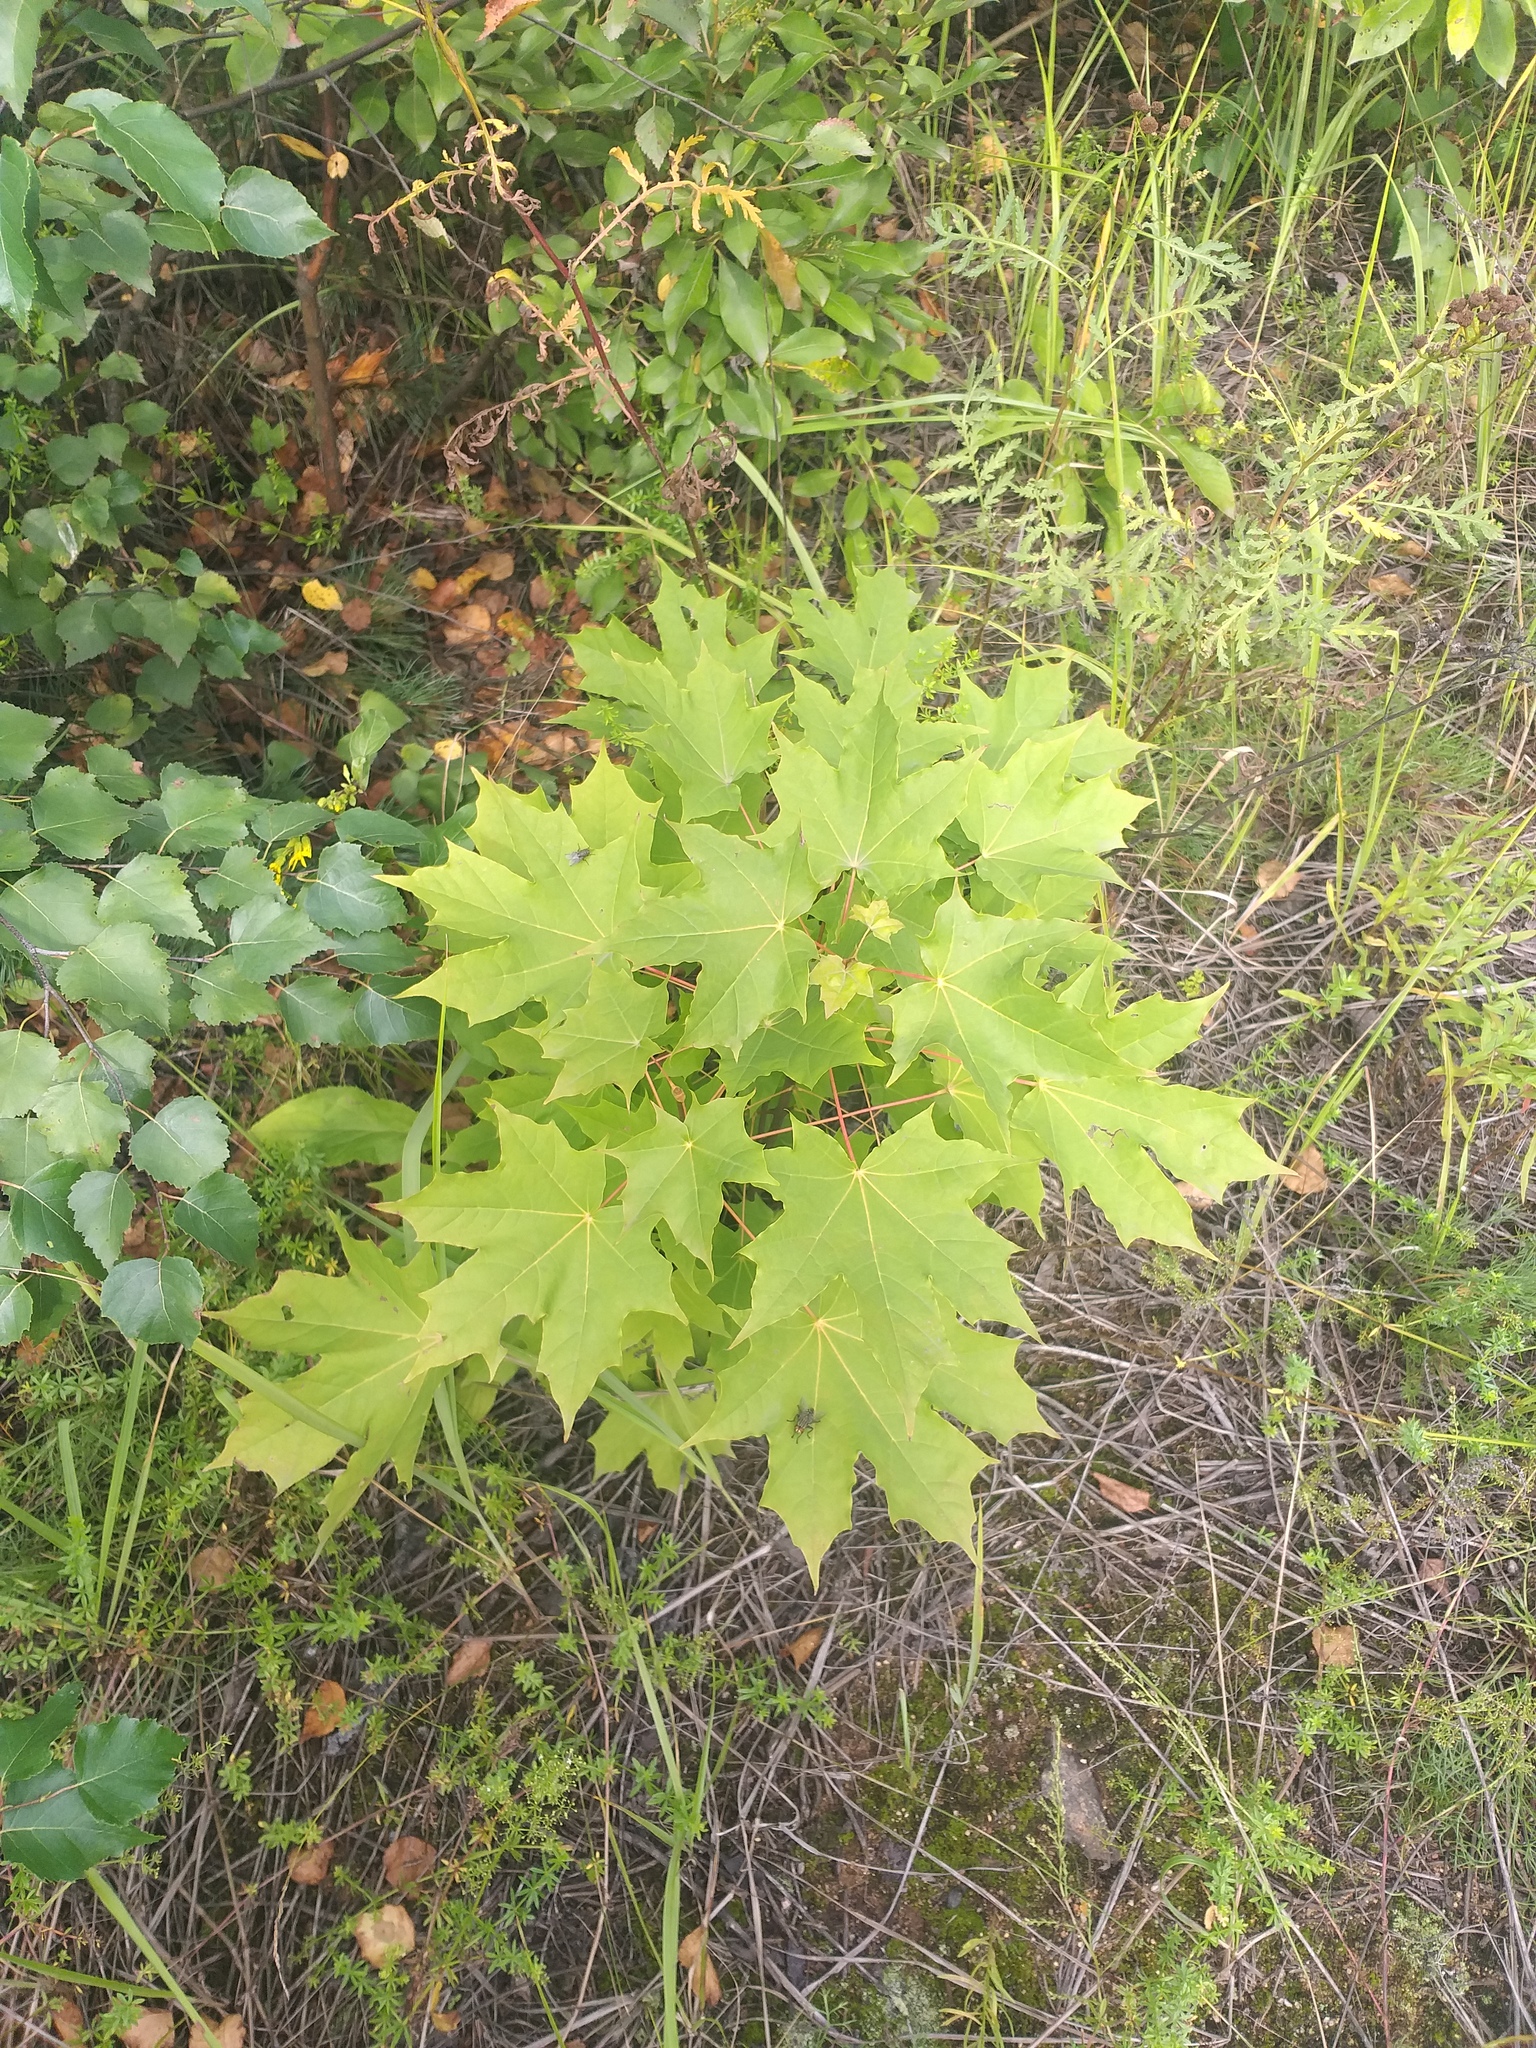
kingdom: Plantae
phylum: Tracheophyta
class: Magnoliopsida
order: Sapindales
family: Sapindaceae
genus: Acer
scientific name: Acer platanoides
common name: Norway maple
